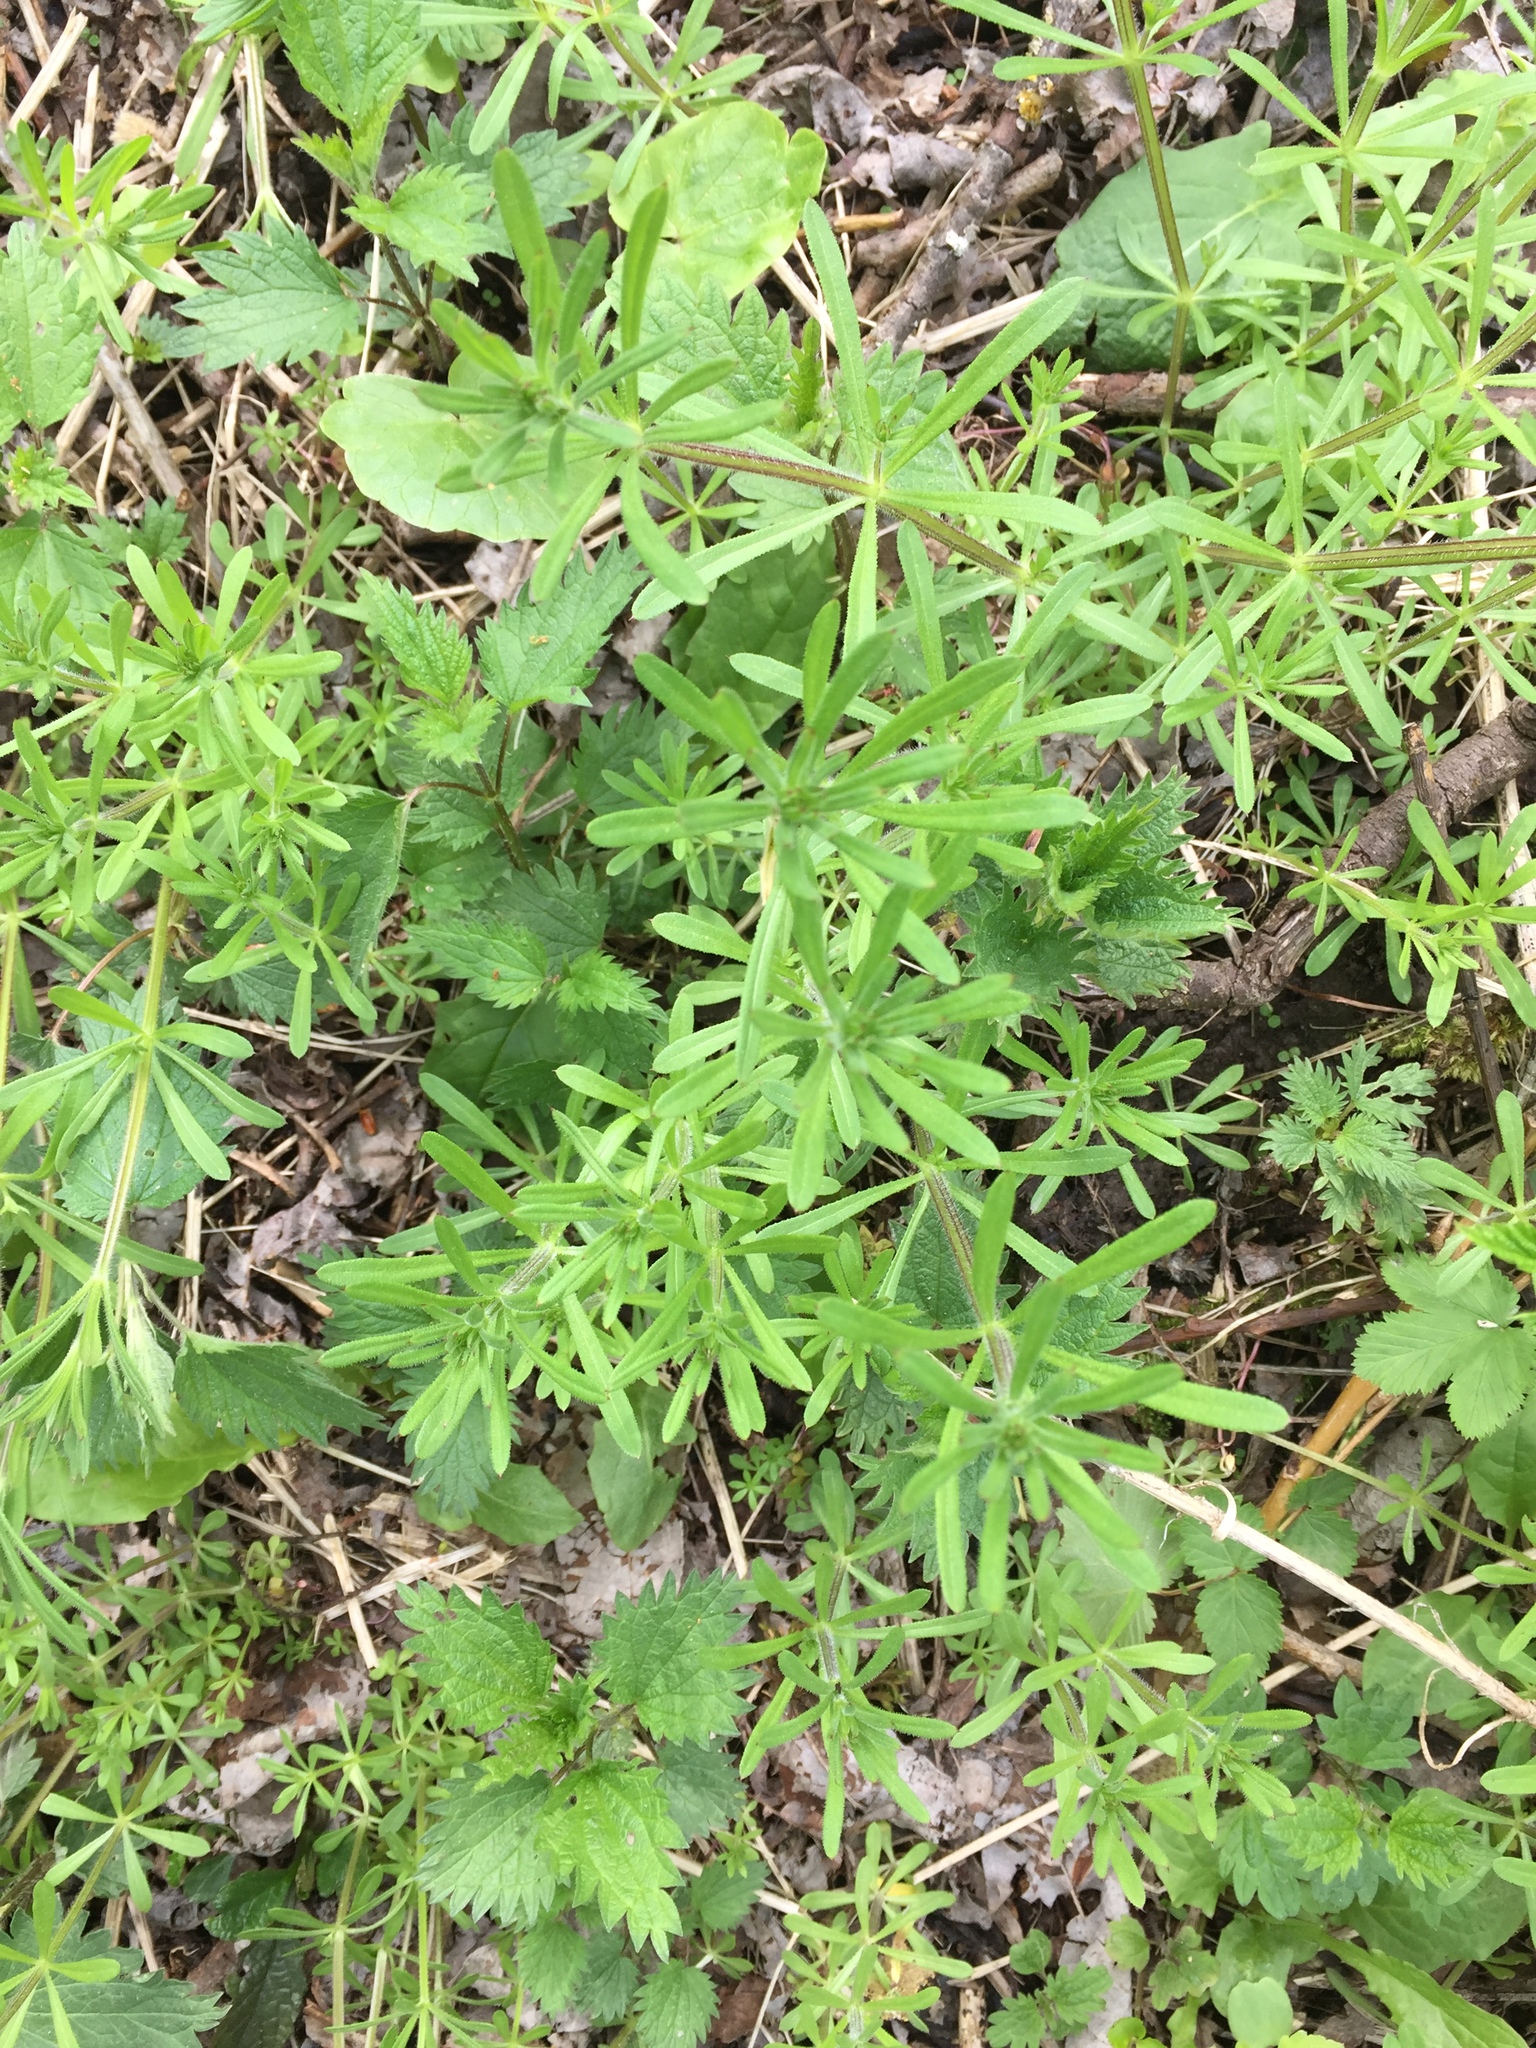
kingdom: Plantae
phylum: Tracheophyta
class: Magnoliopsida
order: Gentianales
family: Rubiaceae
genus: Galium
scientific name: Galium aparine
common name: Cleavers
